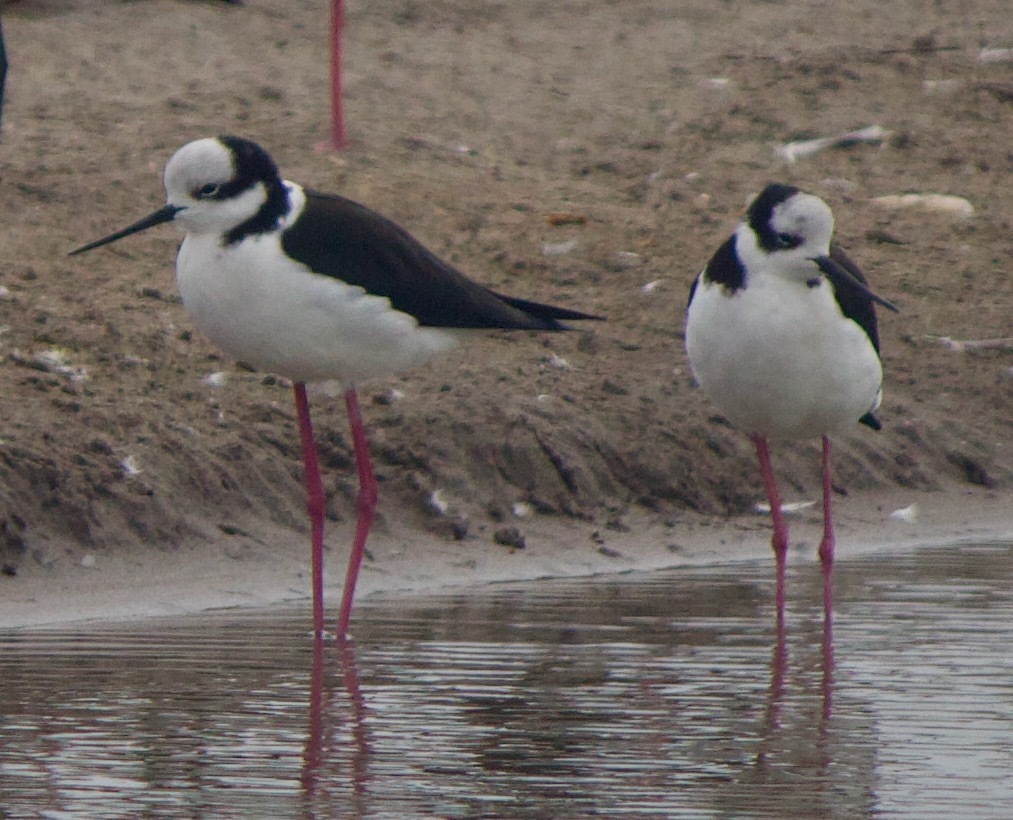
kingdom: Animalia
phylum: Chordata
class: Aves
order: Charadriiformes
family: Recurvirostridae
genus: Himantopus
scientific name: Himantopus mexicanus
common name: Black-necked stilt
